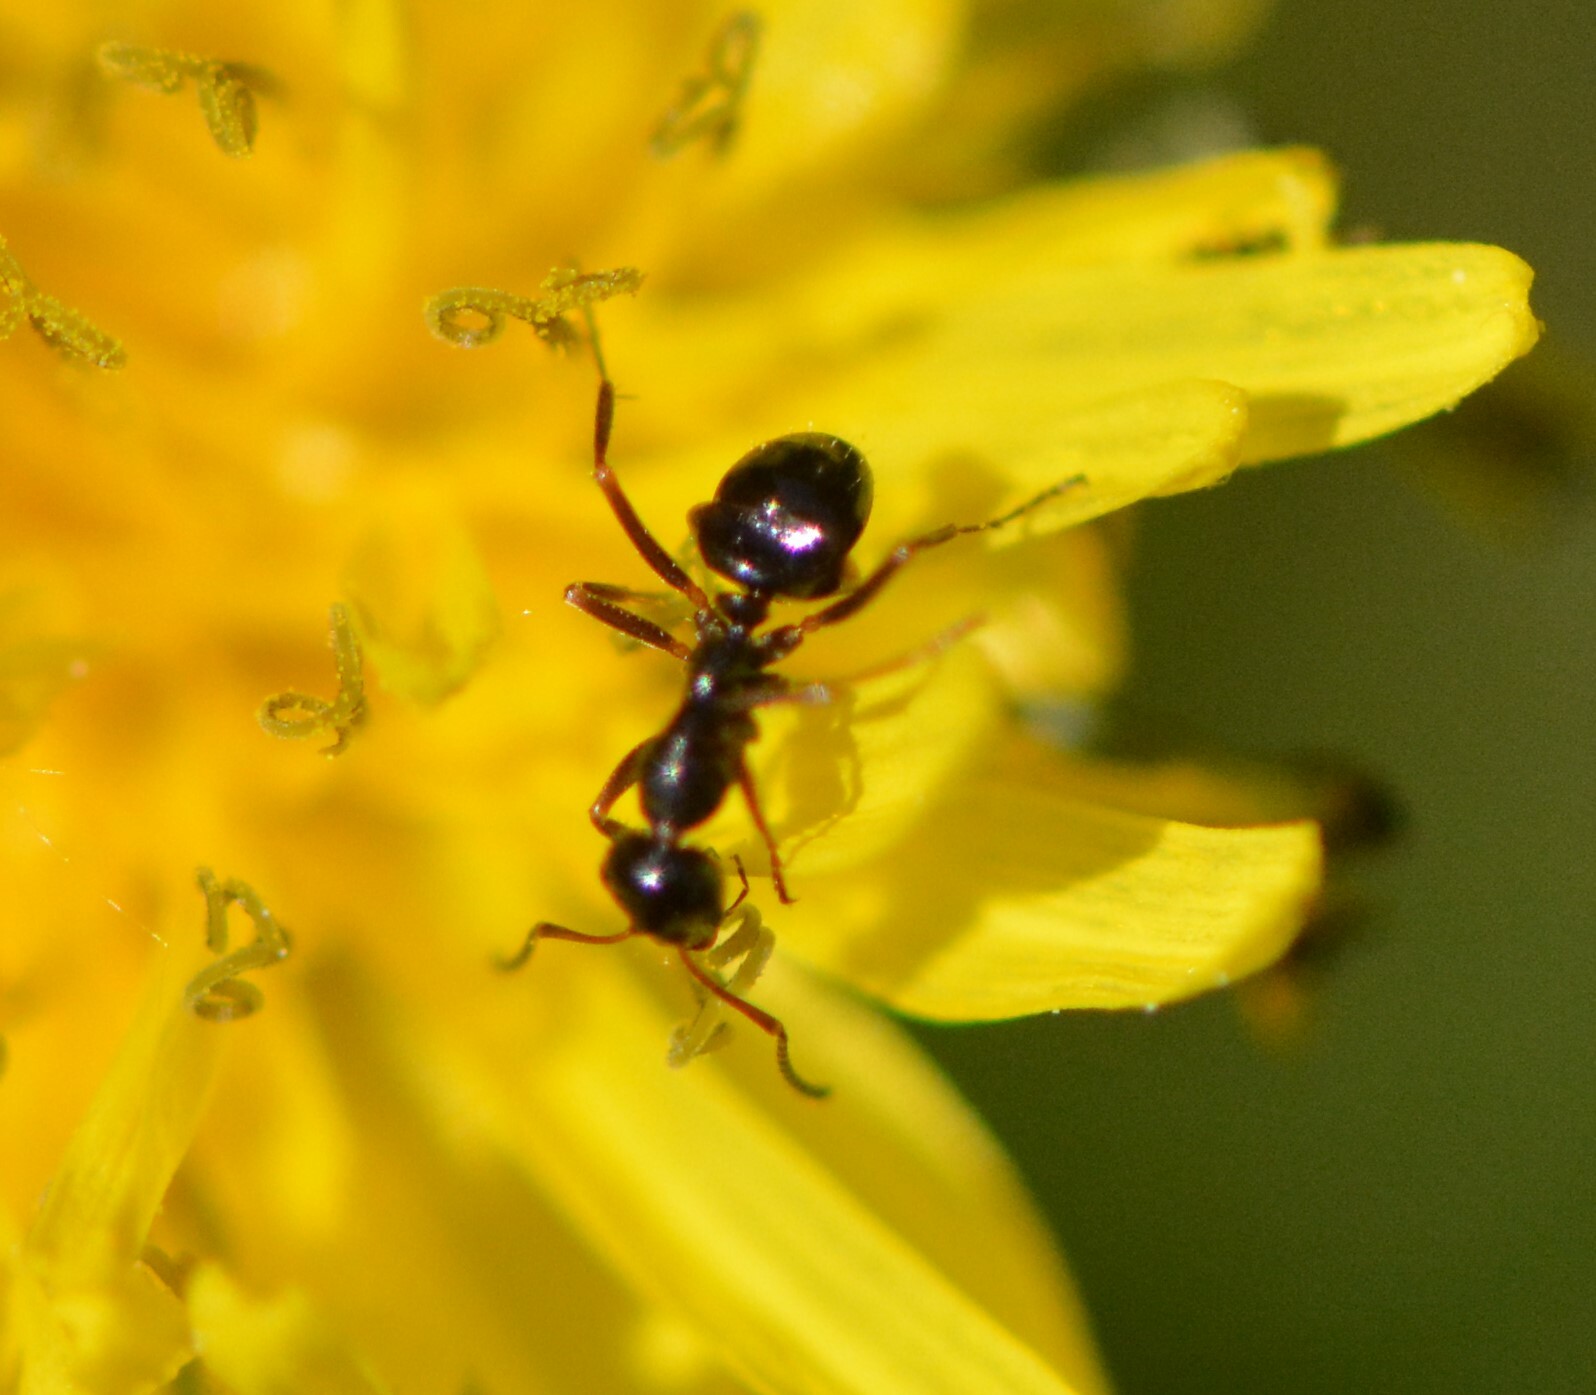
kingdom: Animalia
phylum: Arthropoda
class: Insecta
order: Hymenoptera
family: Formicidae
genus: Formica
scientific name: Formica
